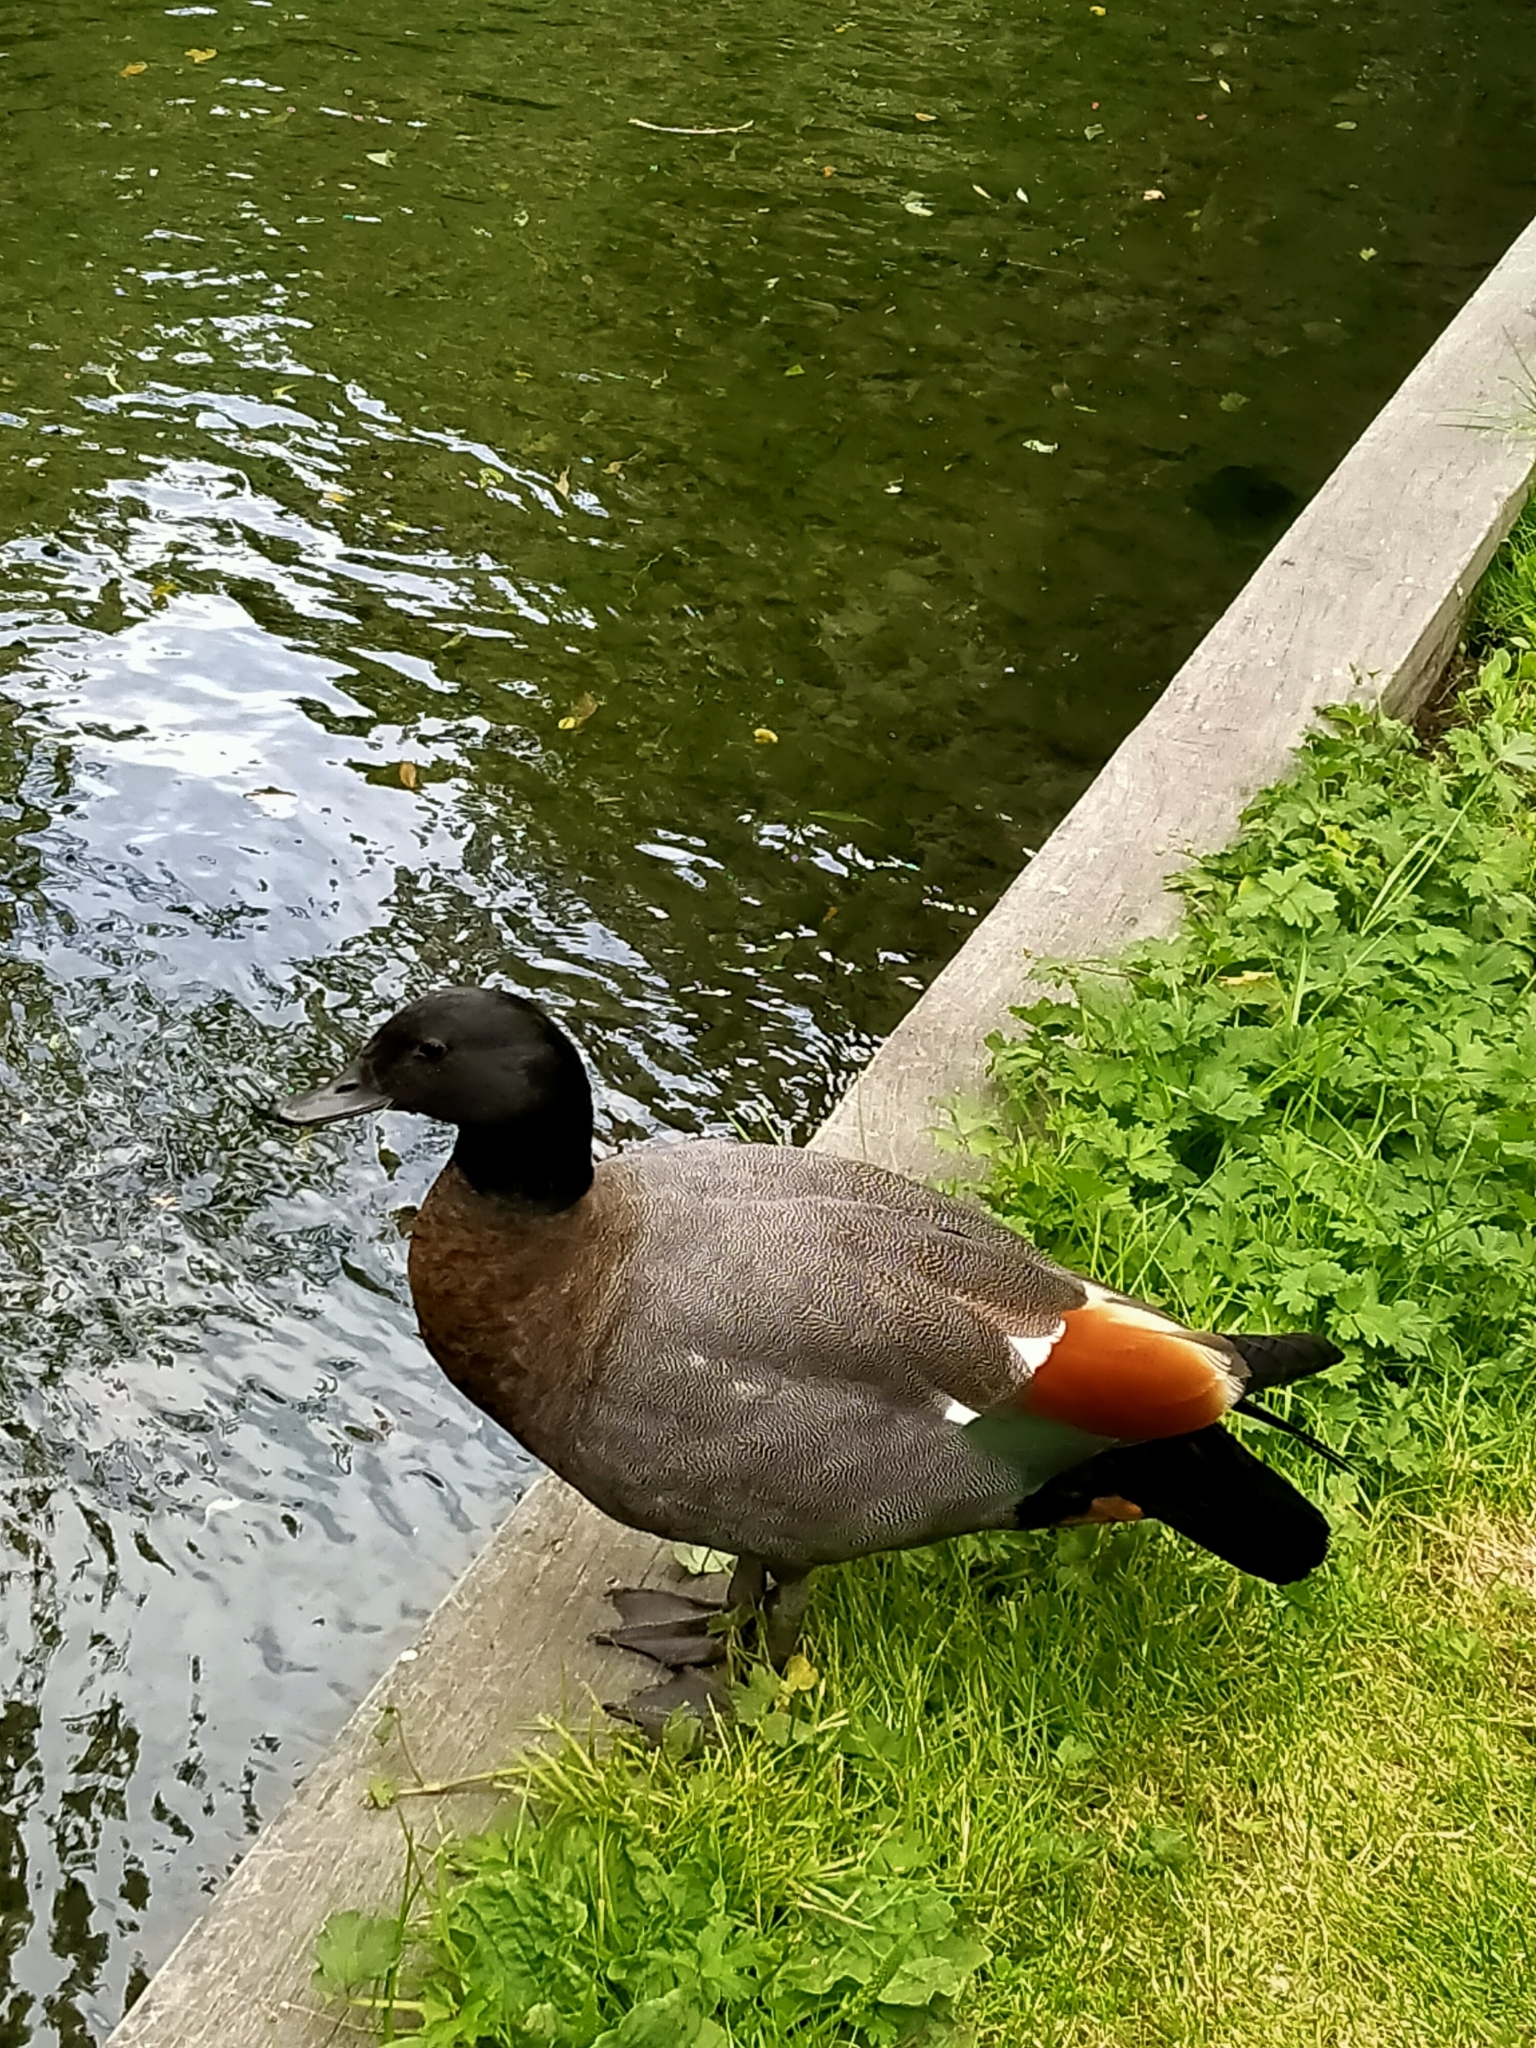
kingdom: Animalia
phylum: Chordata
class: Aves
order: Anseriformes
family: Anatidae
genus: Tadorna
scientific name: Tadorna variegata
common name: Paradise shelduck
